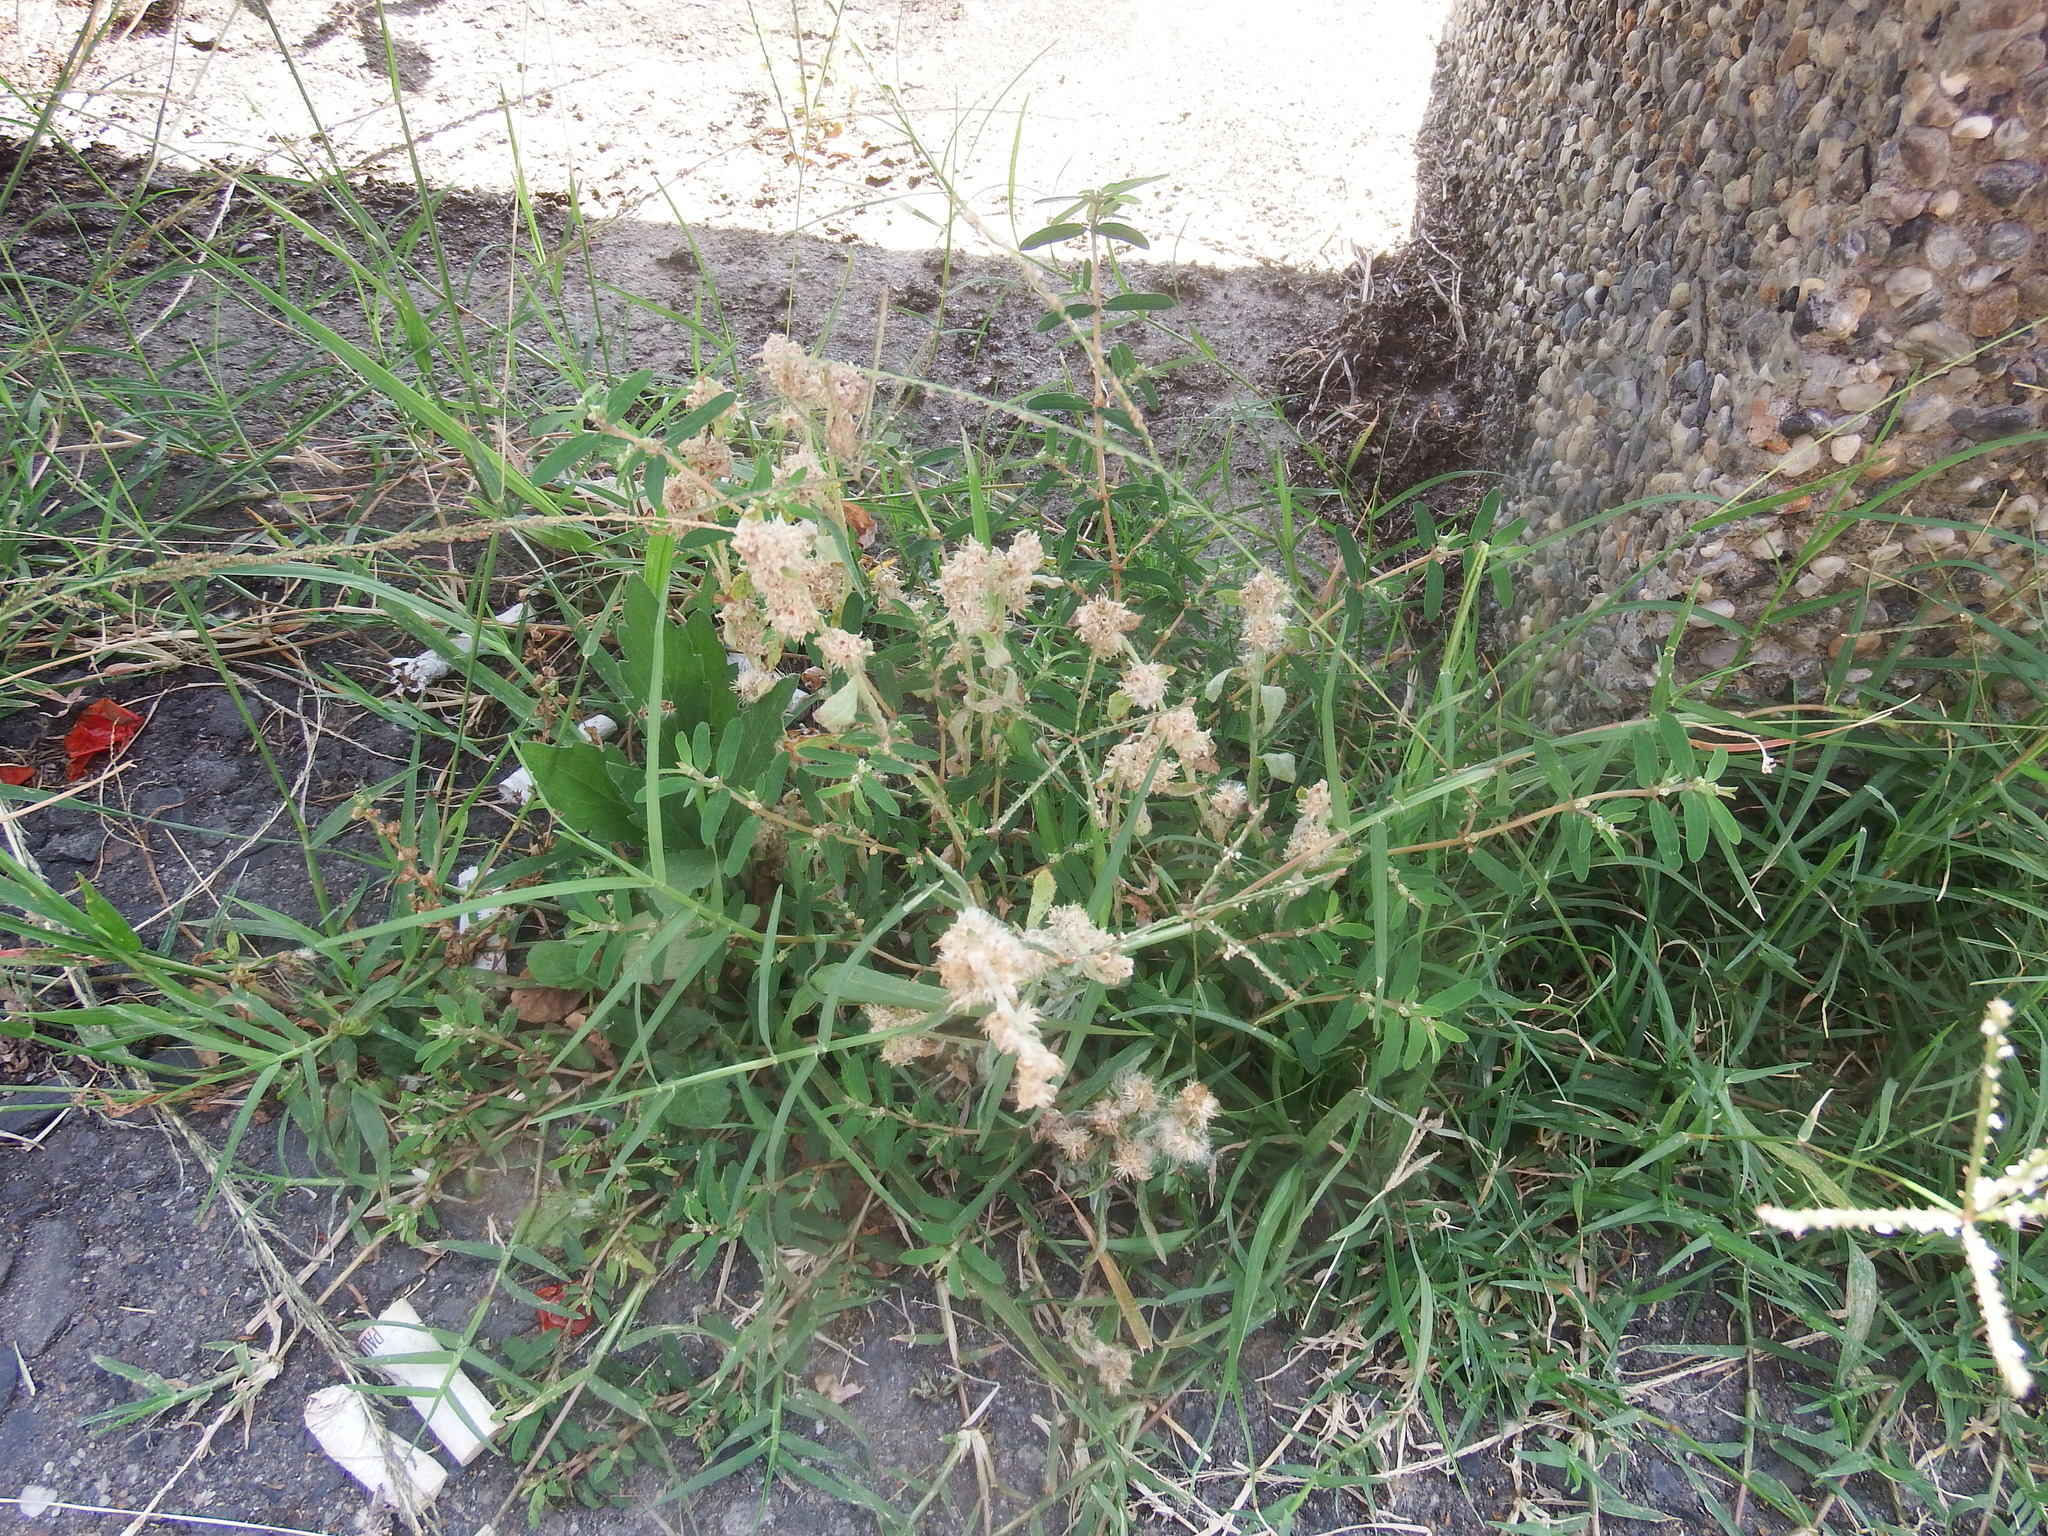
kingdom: Plantae
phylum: Tracheophyta
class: Magnoliopsida
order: Asterales
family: Asteraceae
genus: Gamochaeta
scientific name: Gamochaeta purpurea
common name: Purple cudweed
